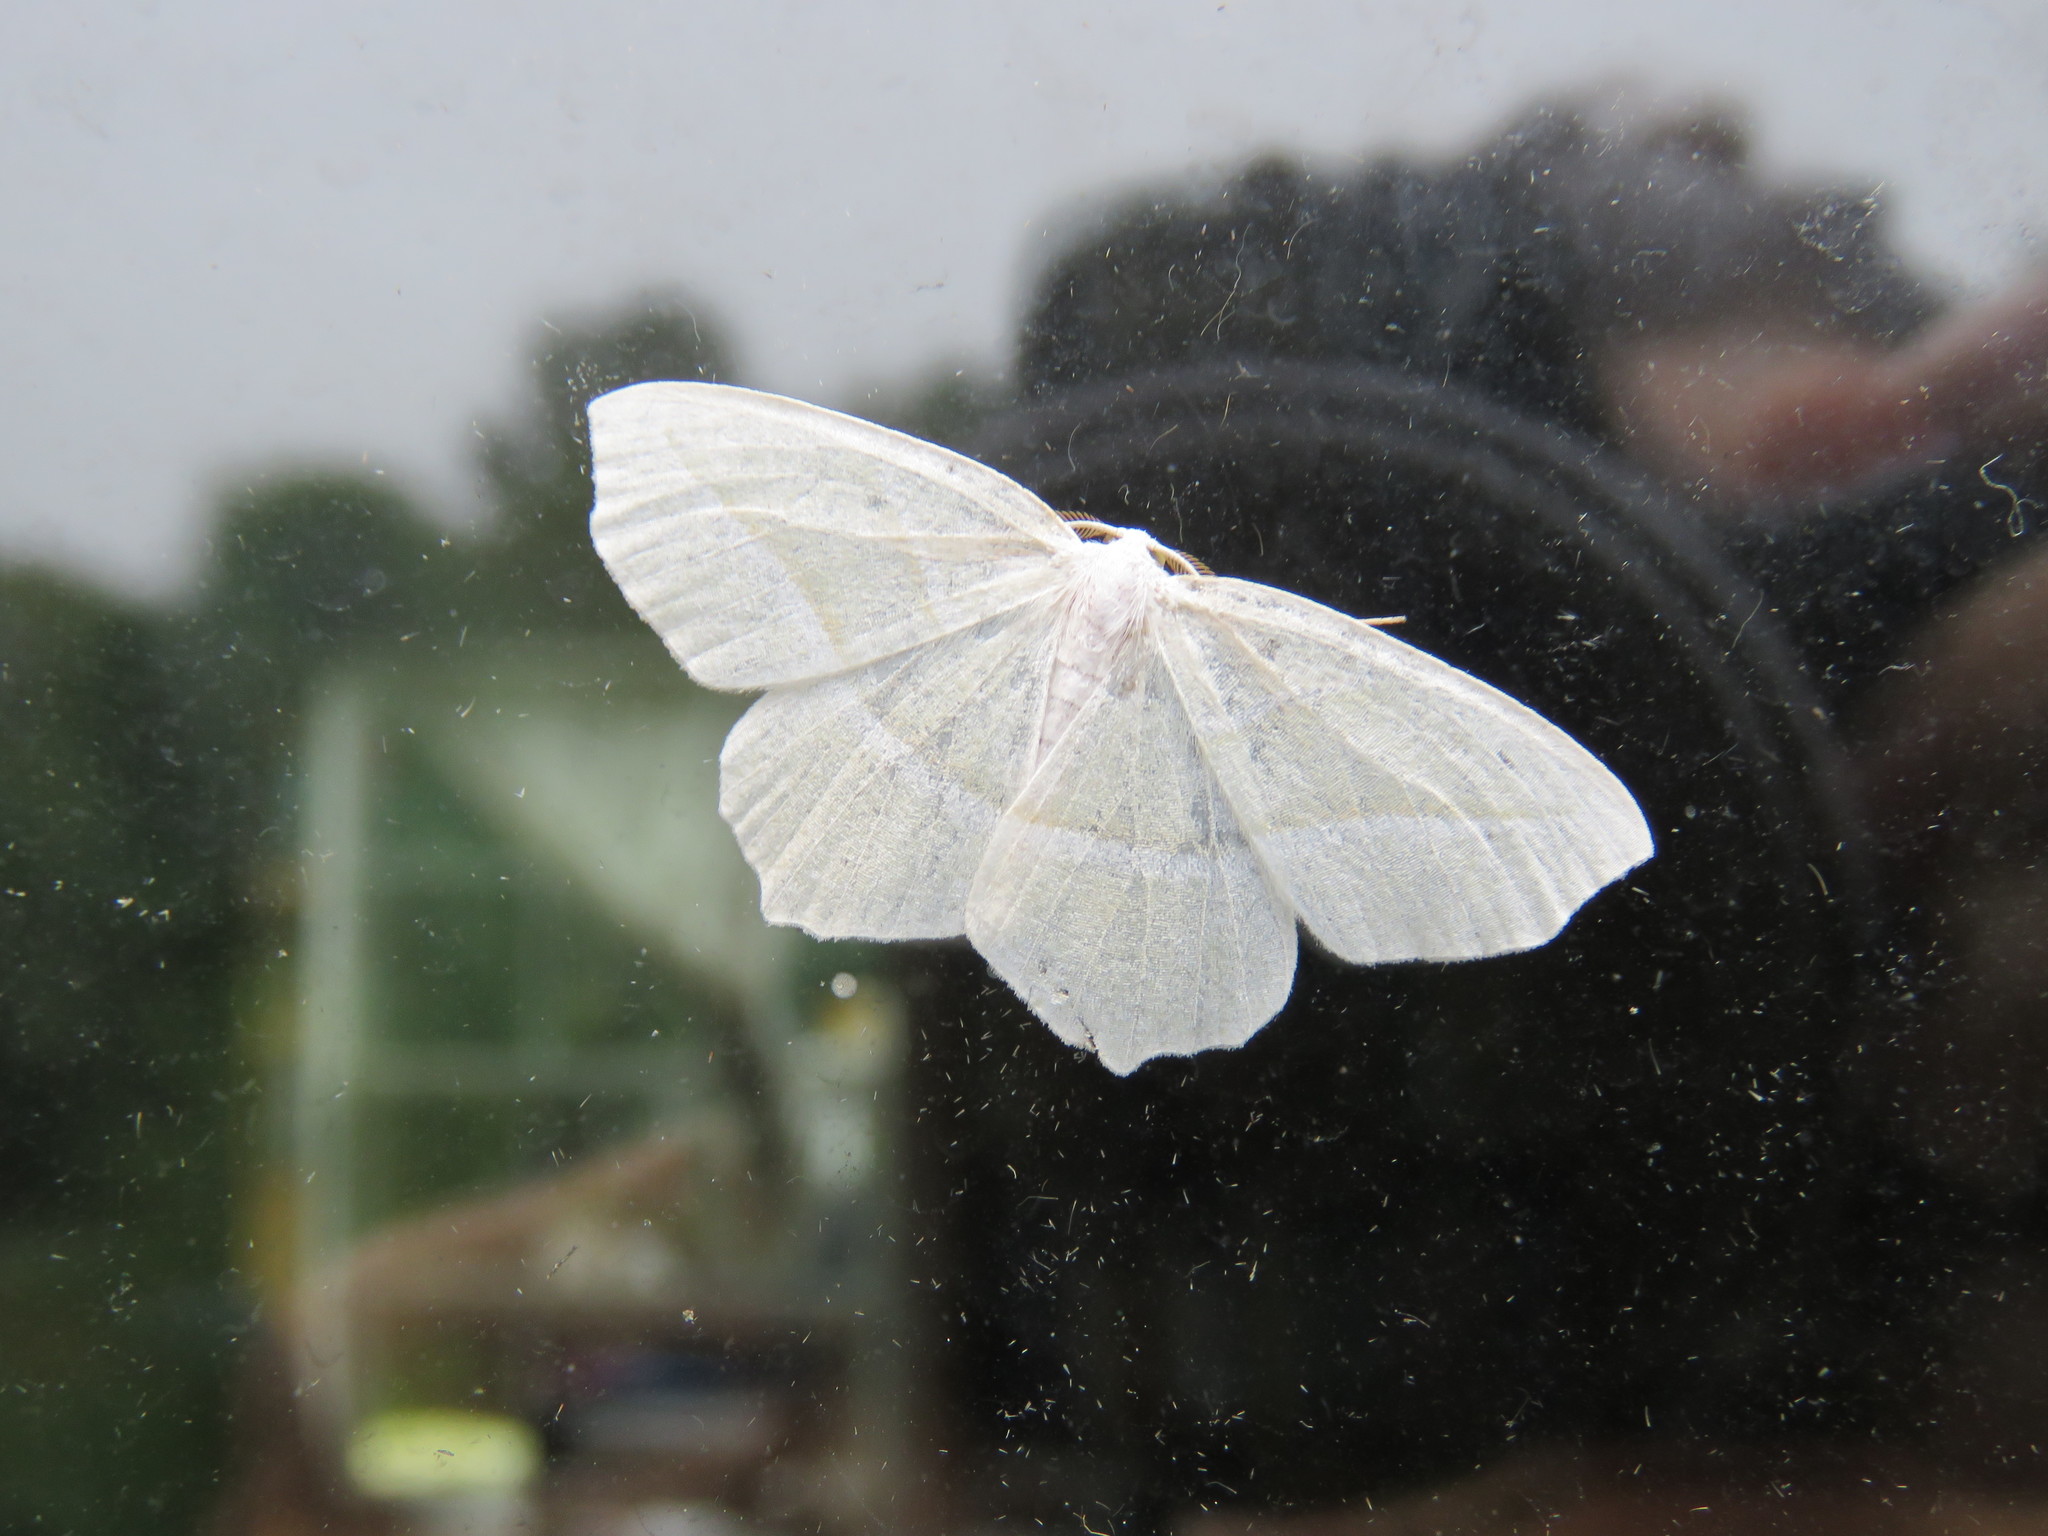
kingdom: Animalia
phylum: Arthropoda
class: Insecta
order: Lepidoptera
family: Geometridae
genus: Campaea
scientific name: Campaea perlata
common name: Fringed looper
